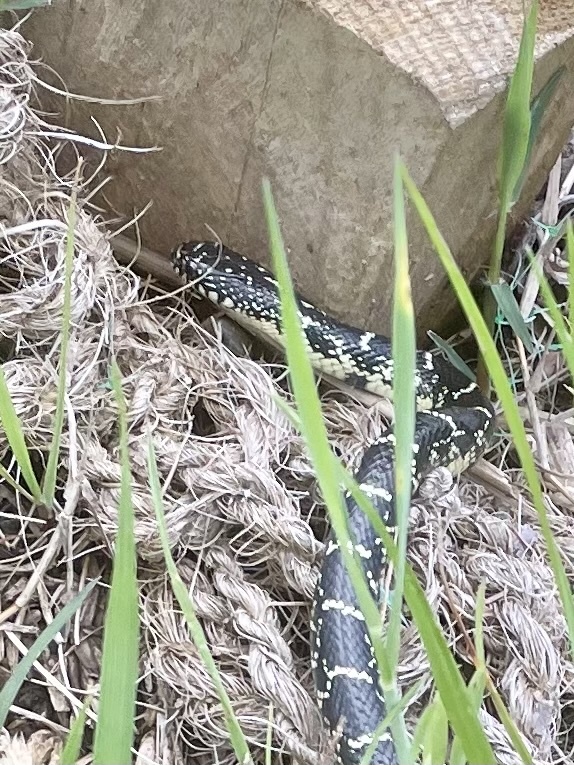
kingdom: Animalia
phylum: Chordata
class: Squamata
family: Colubridae
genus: Lampropeltis
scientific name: Lampropeltis nigra
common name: Black kingsnake
